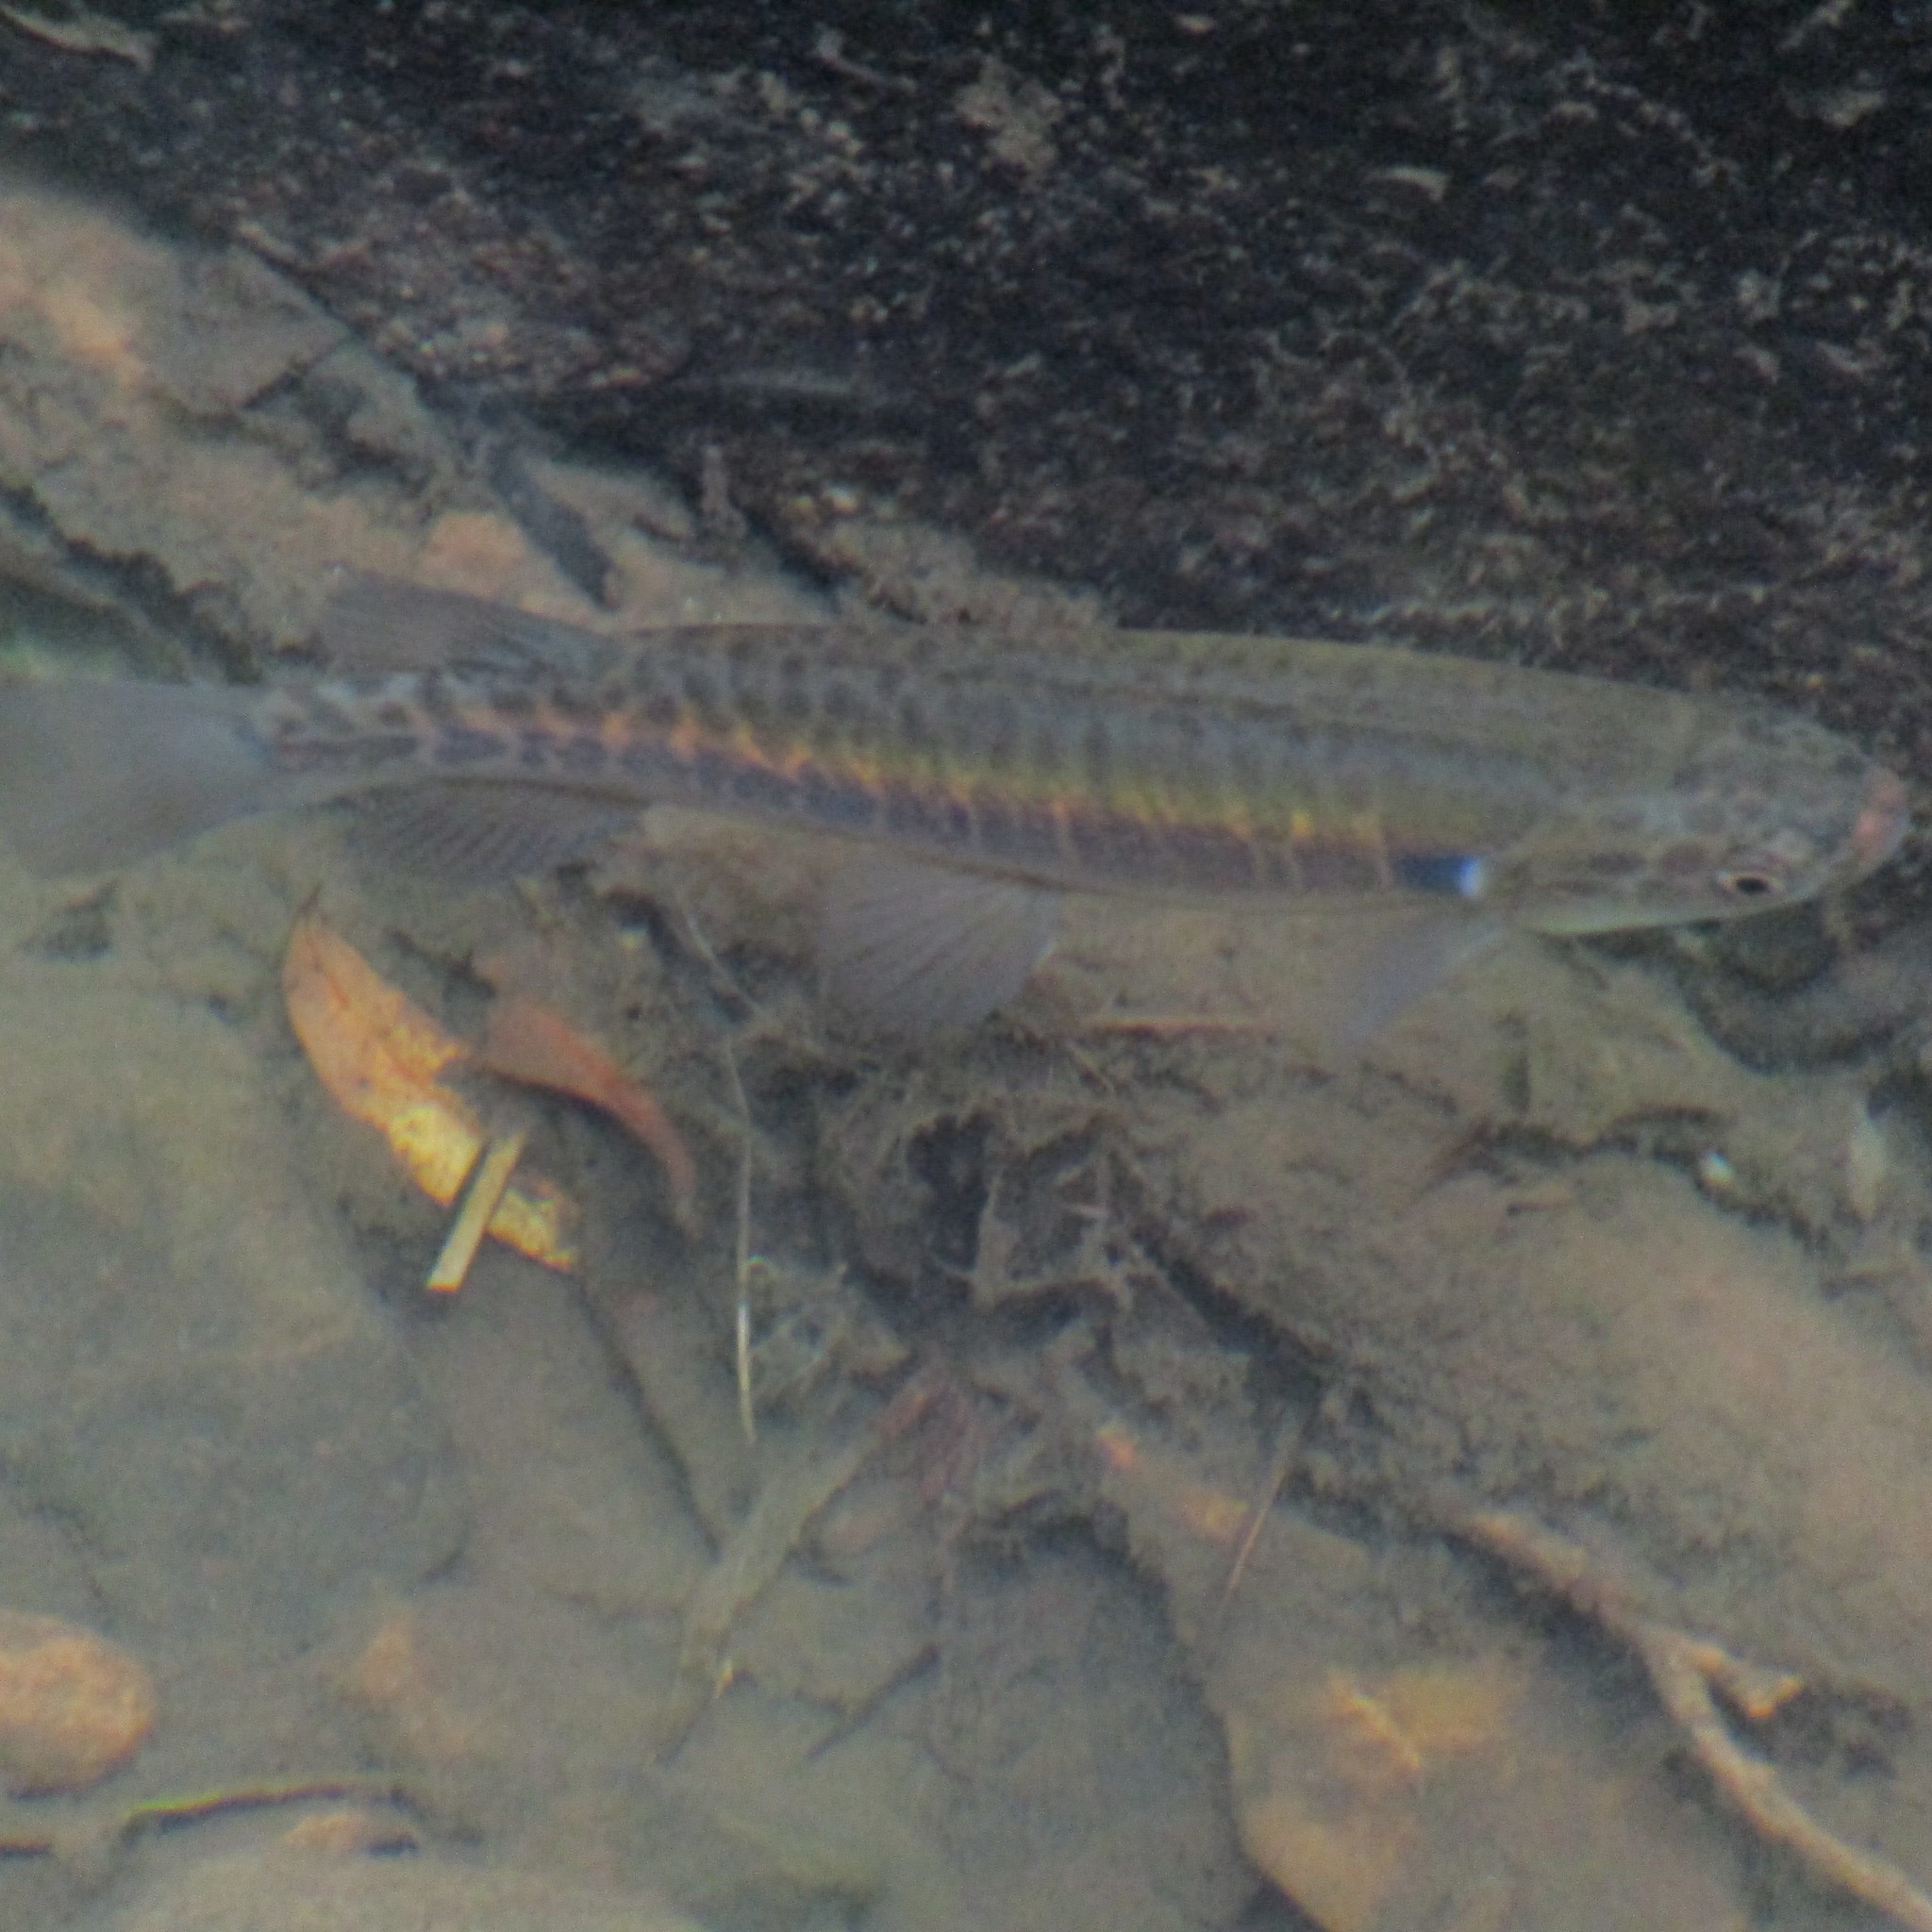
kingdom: Animalia
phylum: Chordata
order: Osmeriformes
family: Galaxiidae
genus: Galaxias
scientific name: Galaxias fasciatus
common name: Banded kokopu
